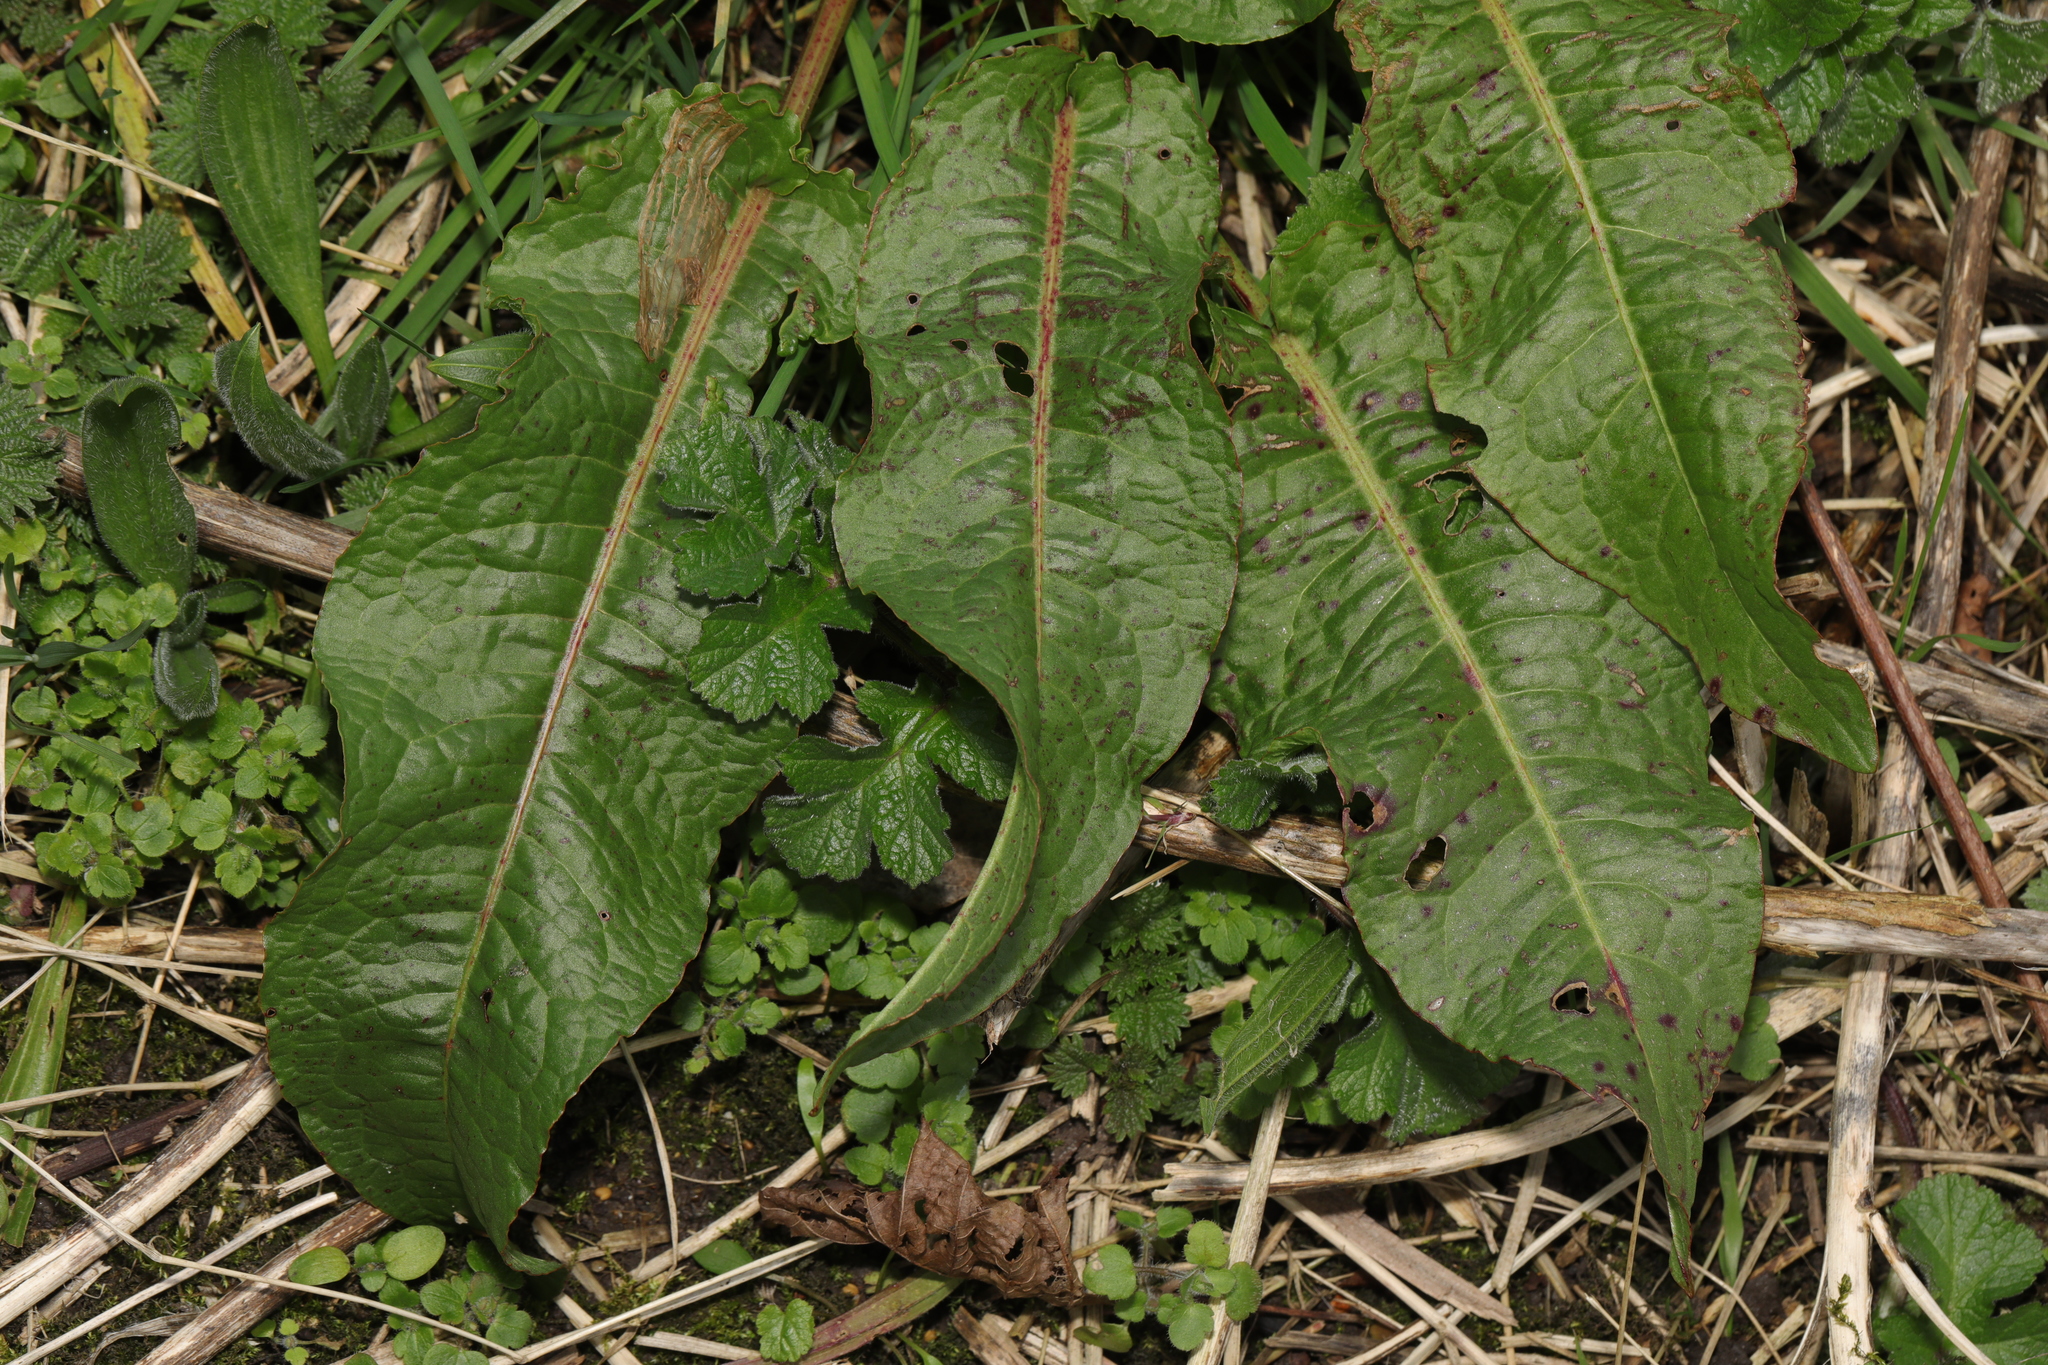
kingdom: Plantae
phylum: Tracheophyta
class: Magnoliopsida
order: Caryophyllales
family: Polygonaceae
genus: Rumex
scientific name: Rumex obtusifolius
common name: Bitter dock
